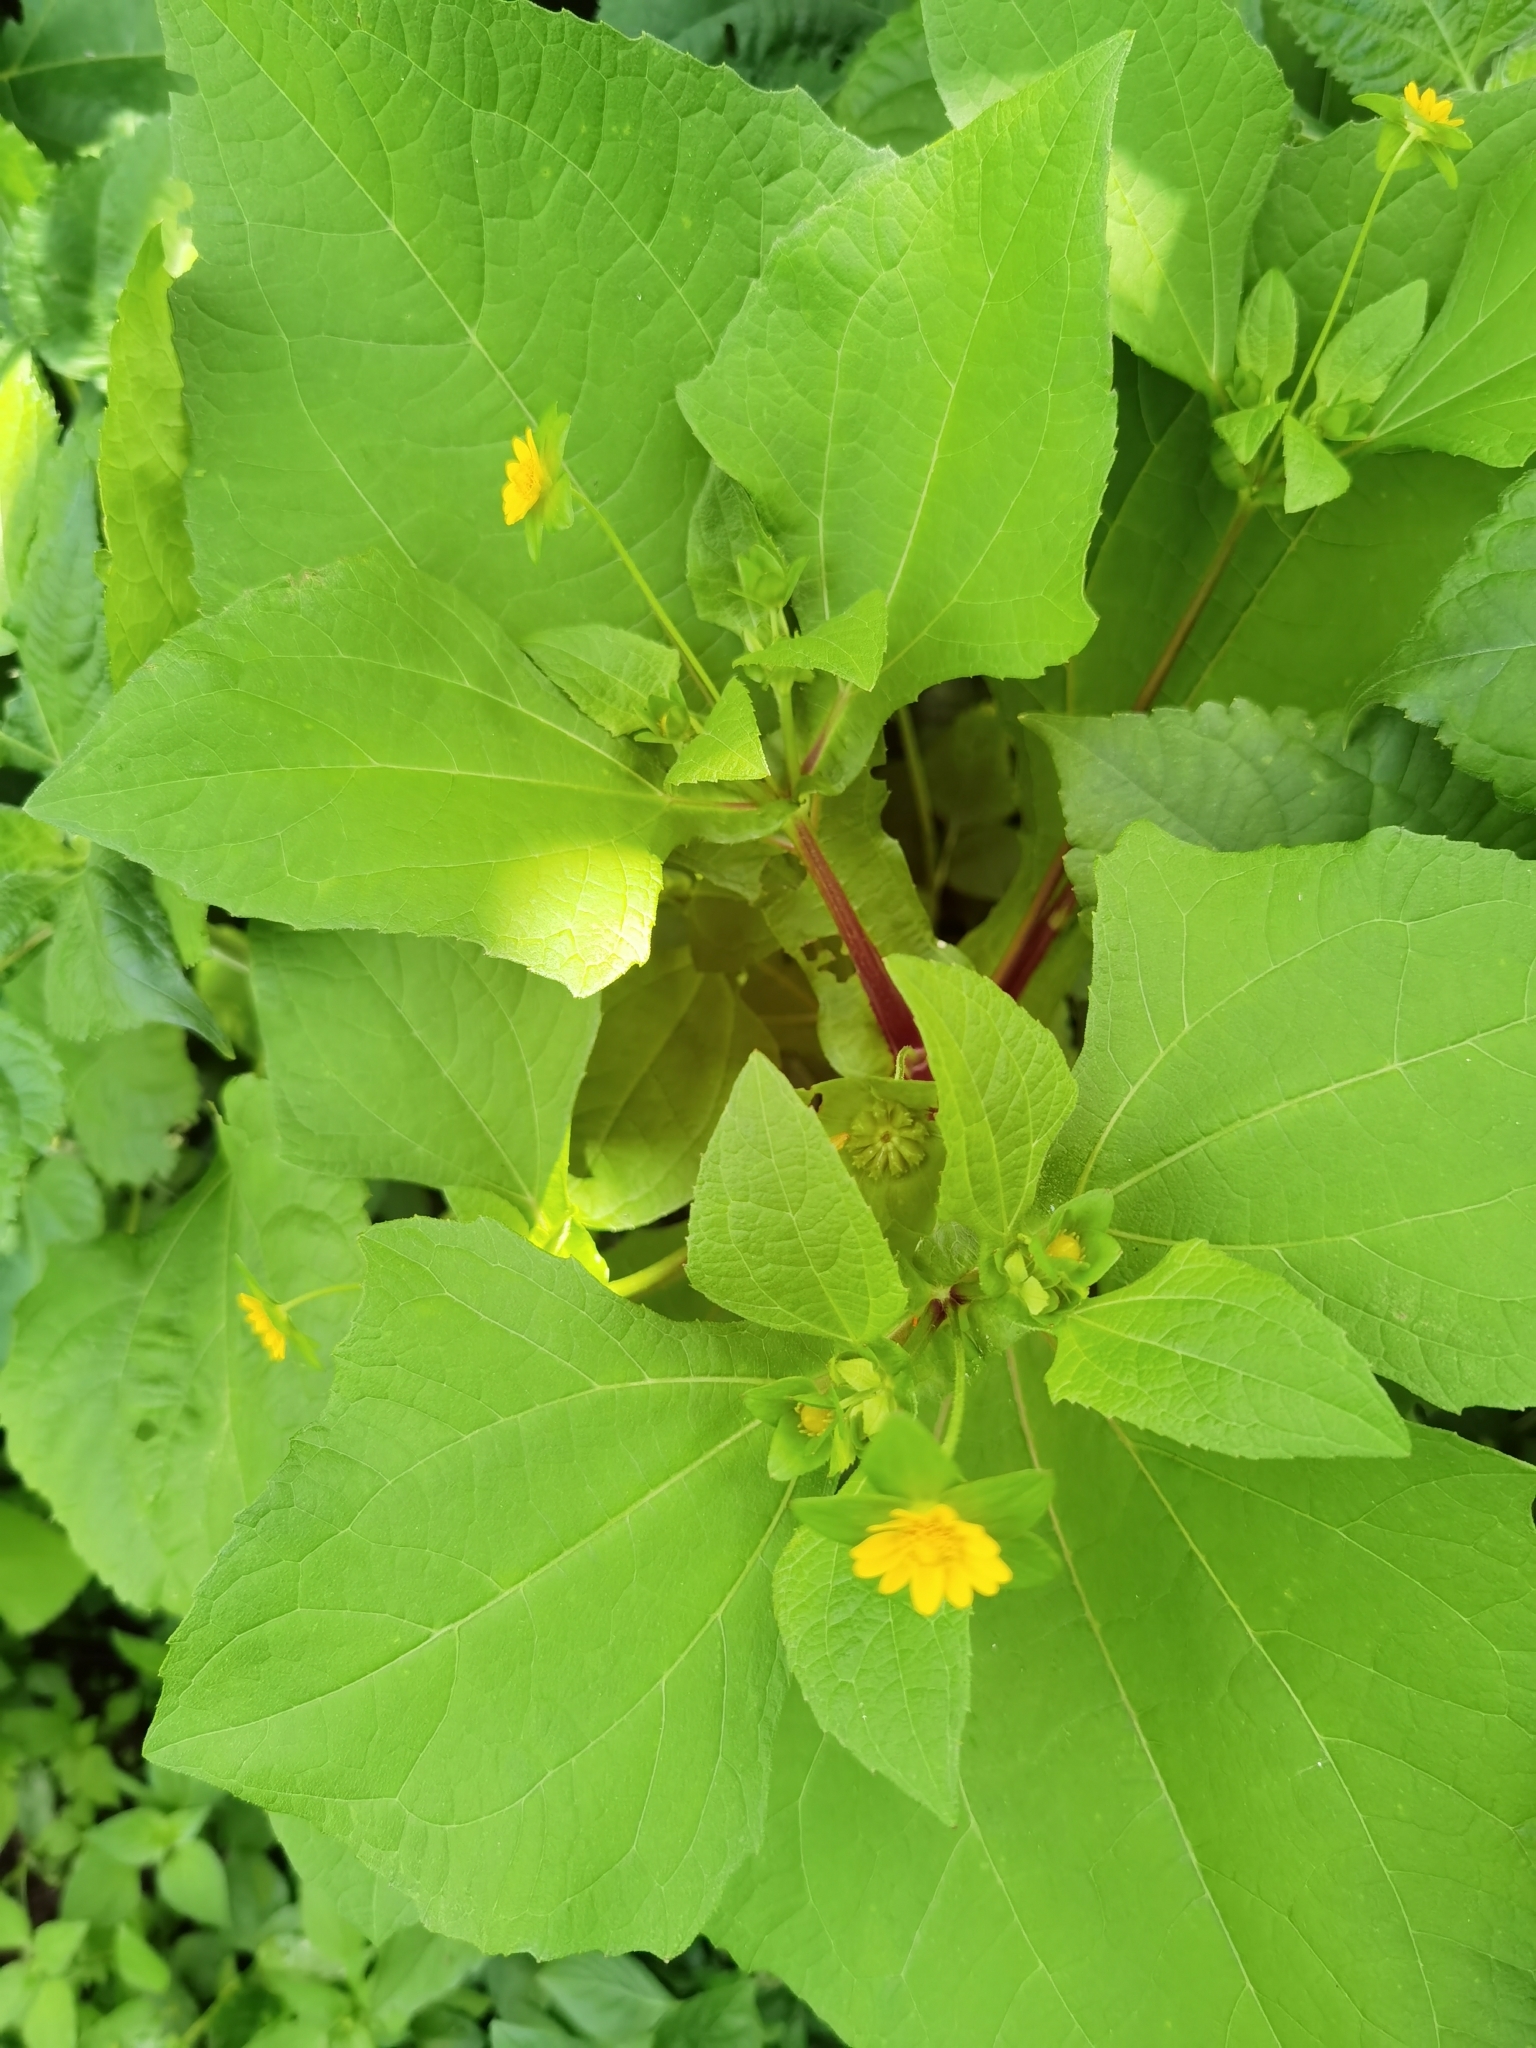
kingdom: Plantae
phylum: Tracheophyta
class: Magnoliopsida
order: Asterales
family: Asteraceae
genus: Melampodium
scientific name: Melampodium perfoliatum
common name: Perfoliate blackfoot
